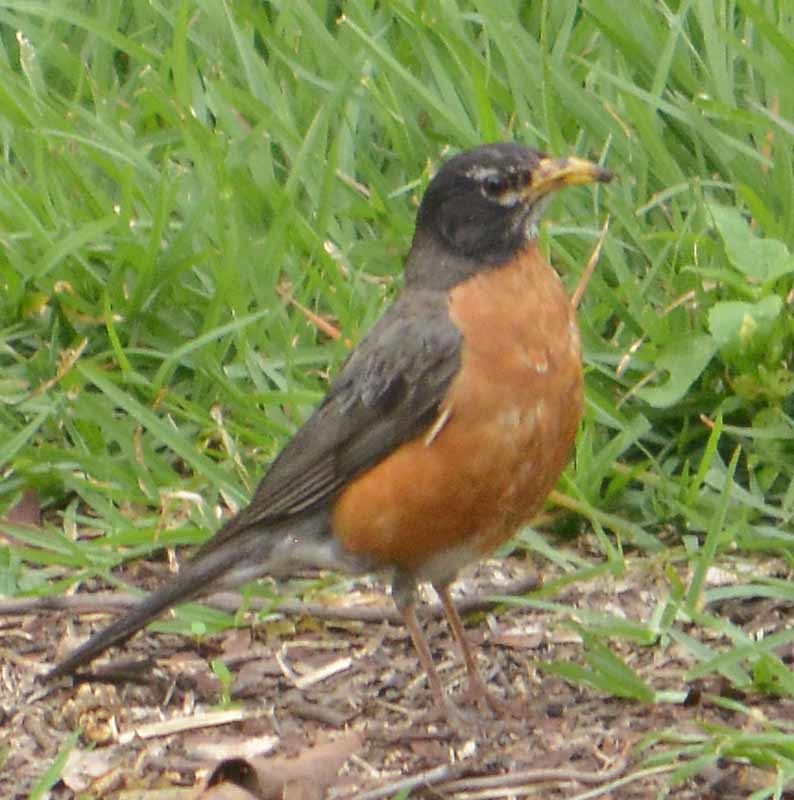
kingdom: Animalia
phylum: Chordata
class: Aves
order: Passeriformes
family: Turdidae
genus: Turdus
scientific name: Turdus migratorius
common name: American robin
